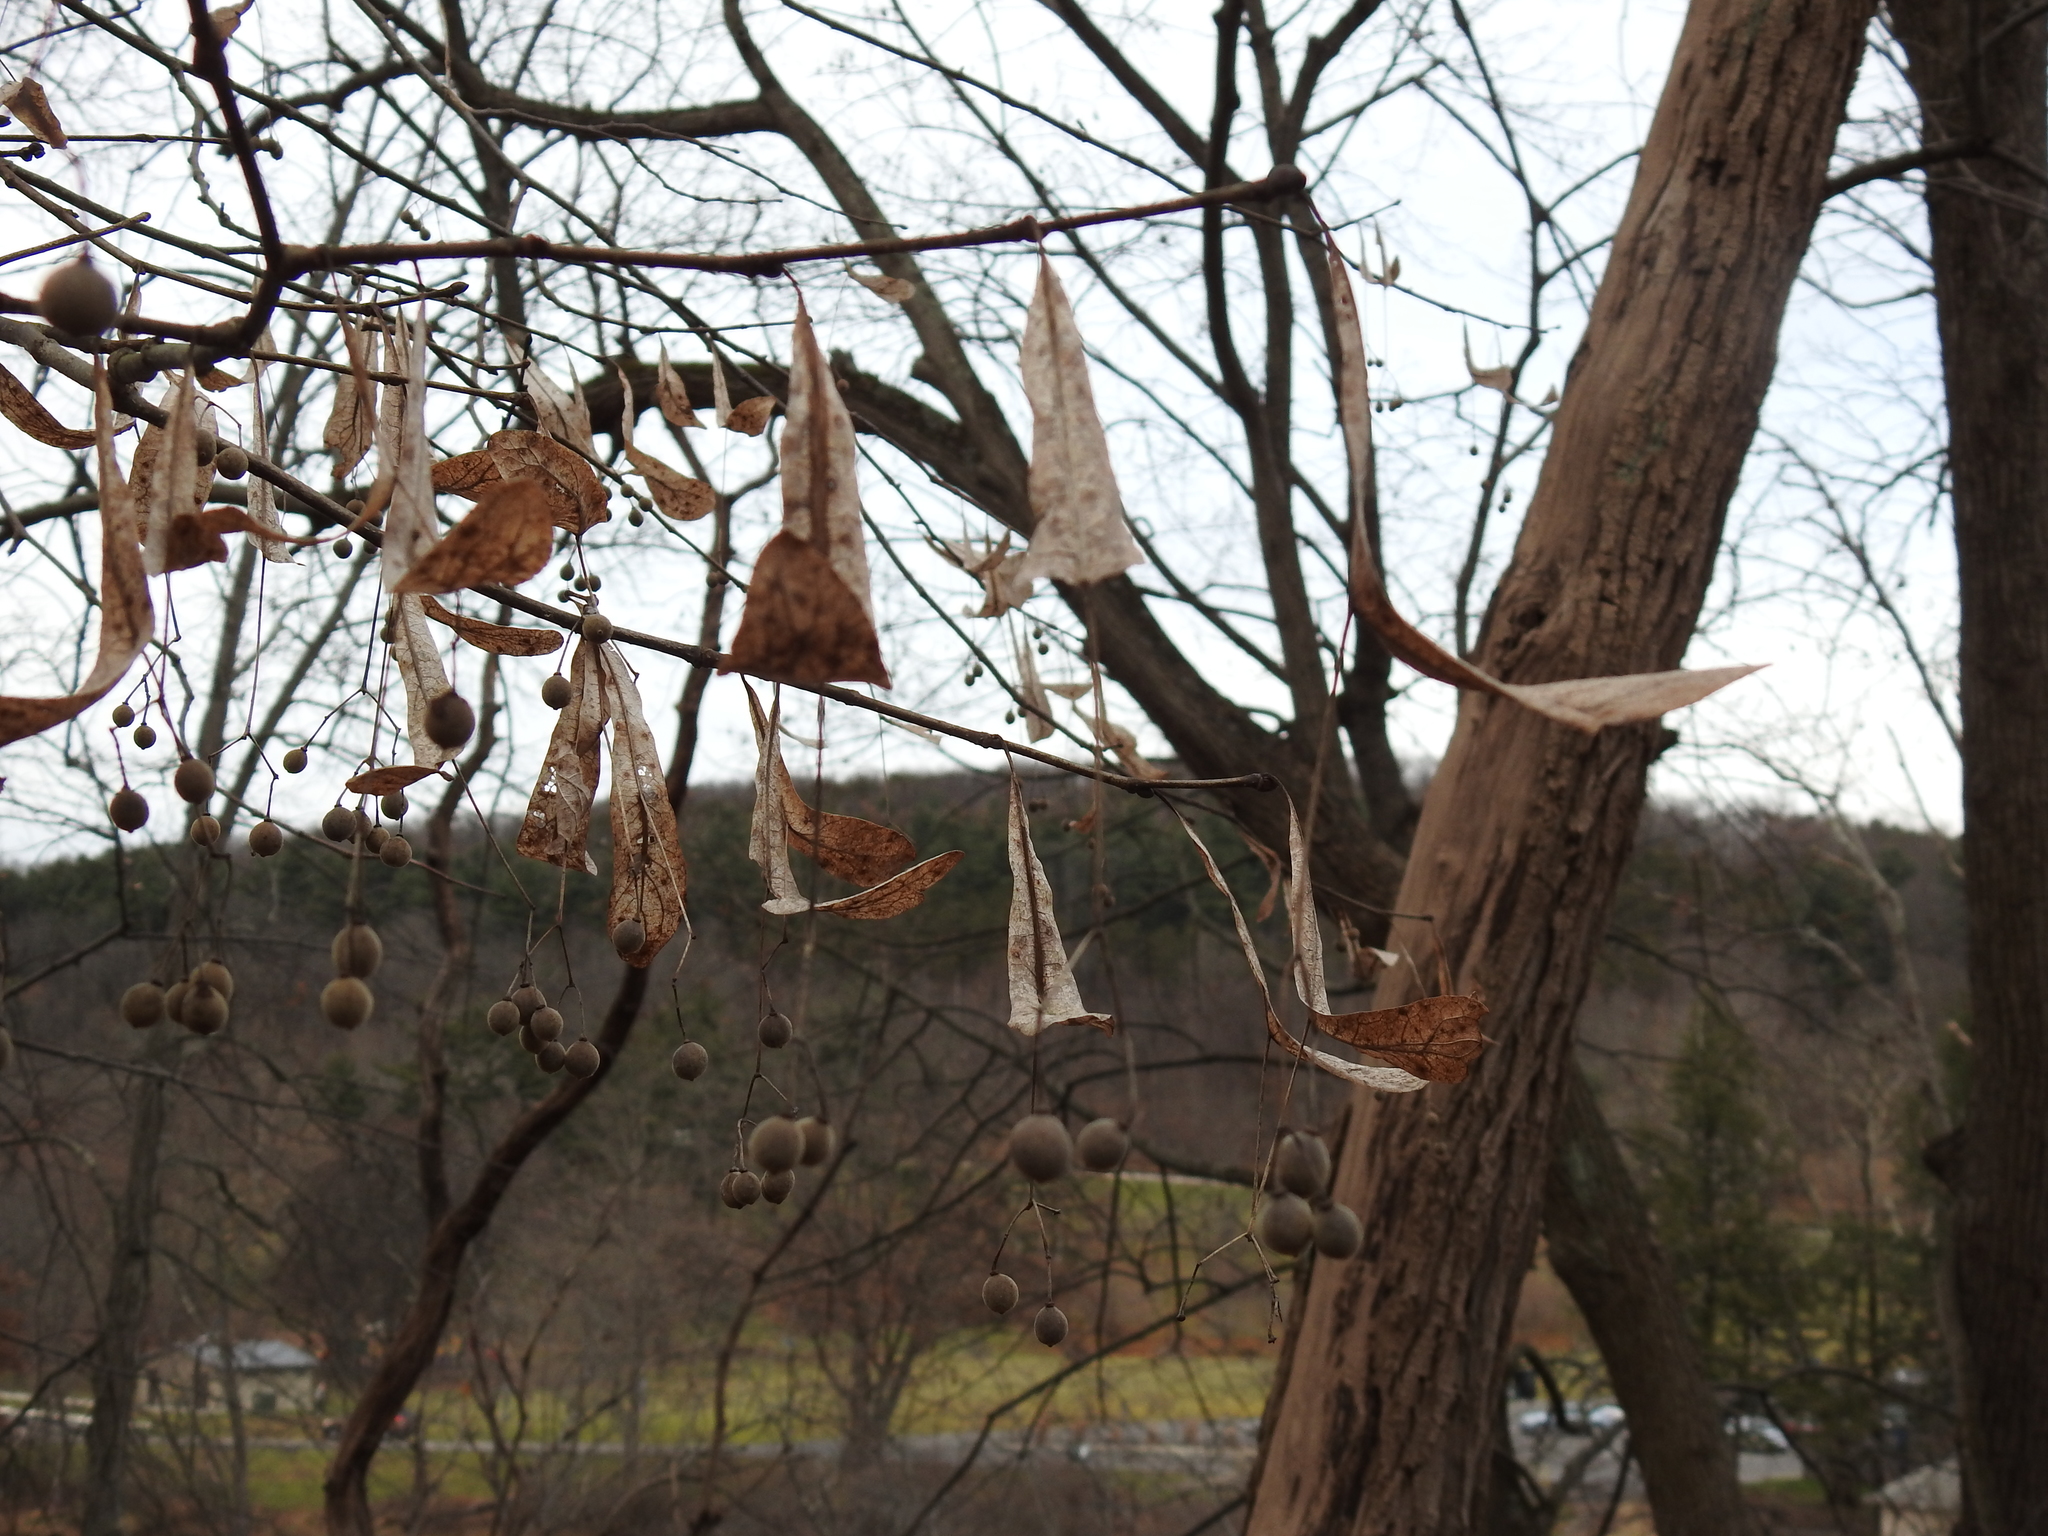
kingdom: Plantae
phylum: Tracheophyta
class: Magnoliopsida
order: Malvales
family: Malvaceae
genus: Tilia
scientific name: Tilia americana
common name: Basswood
